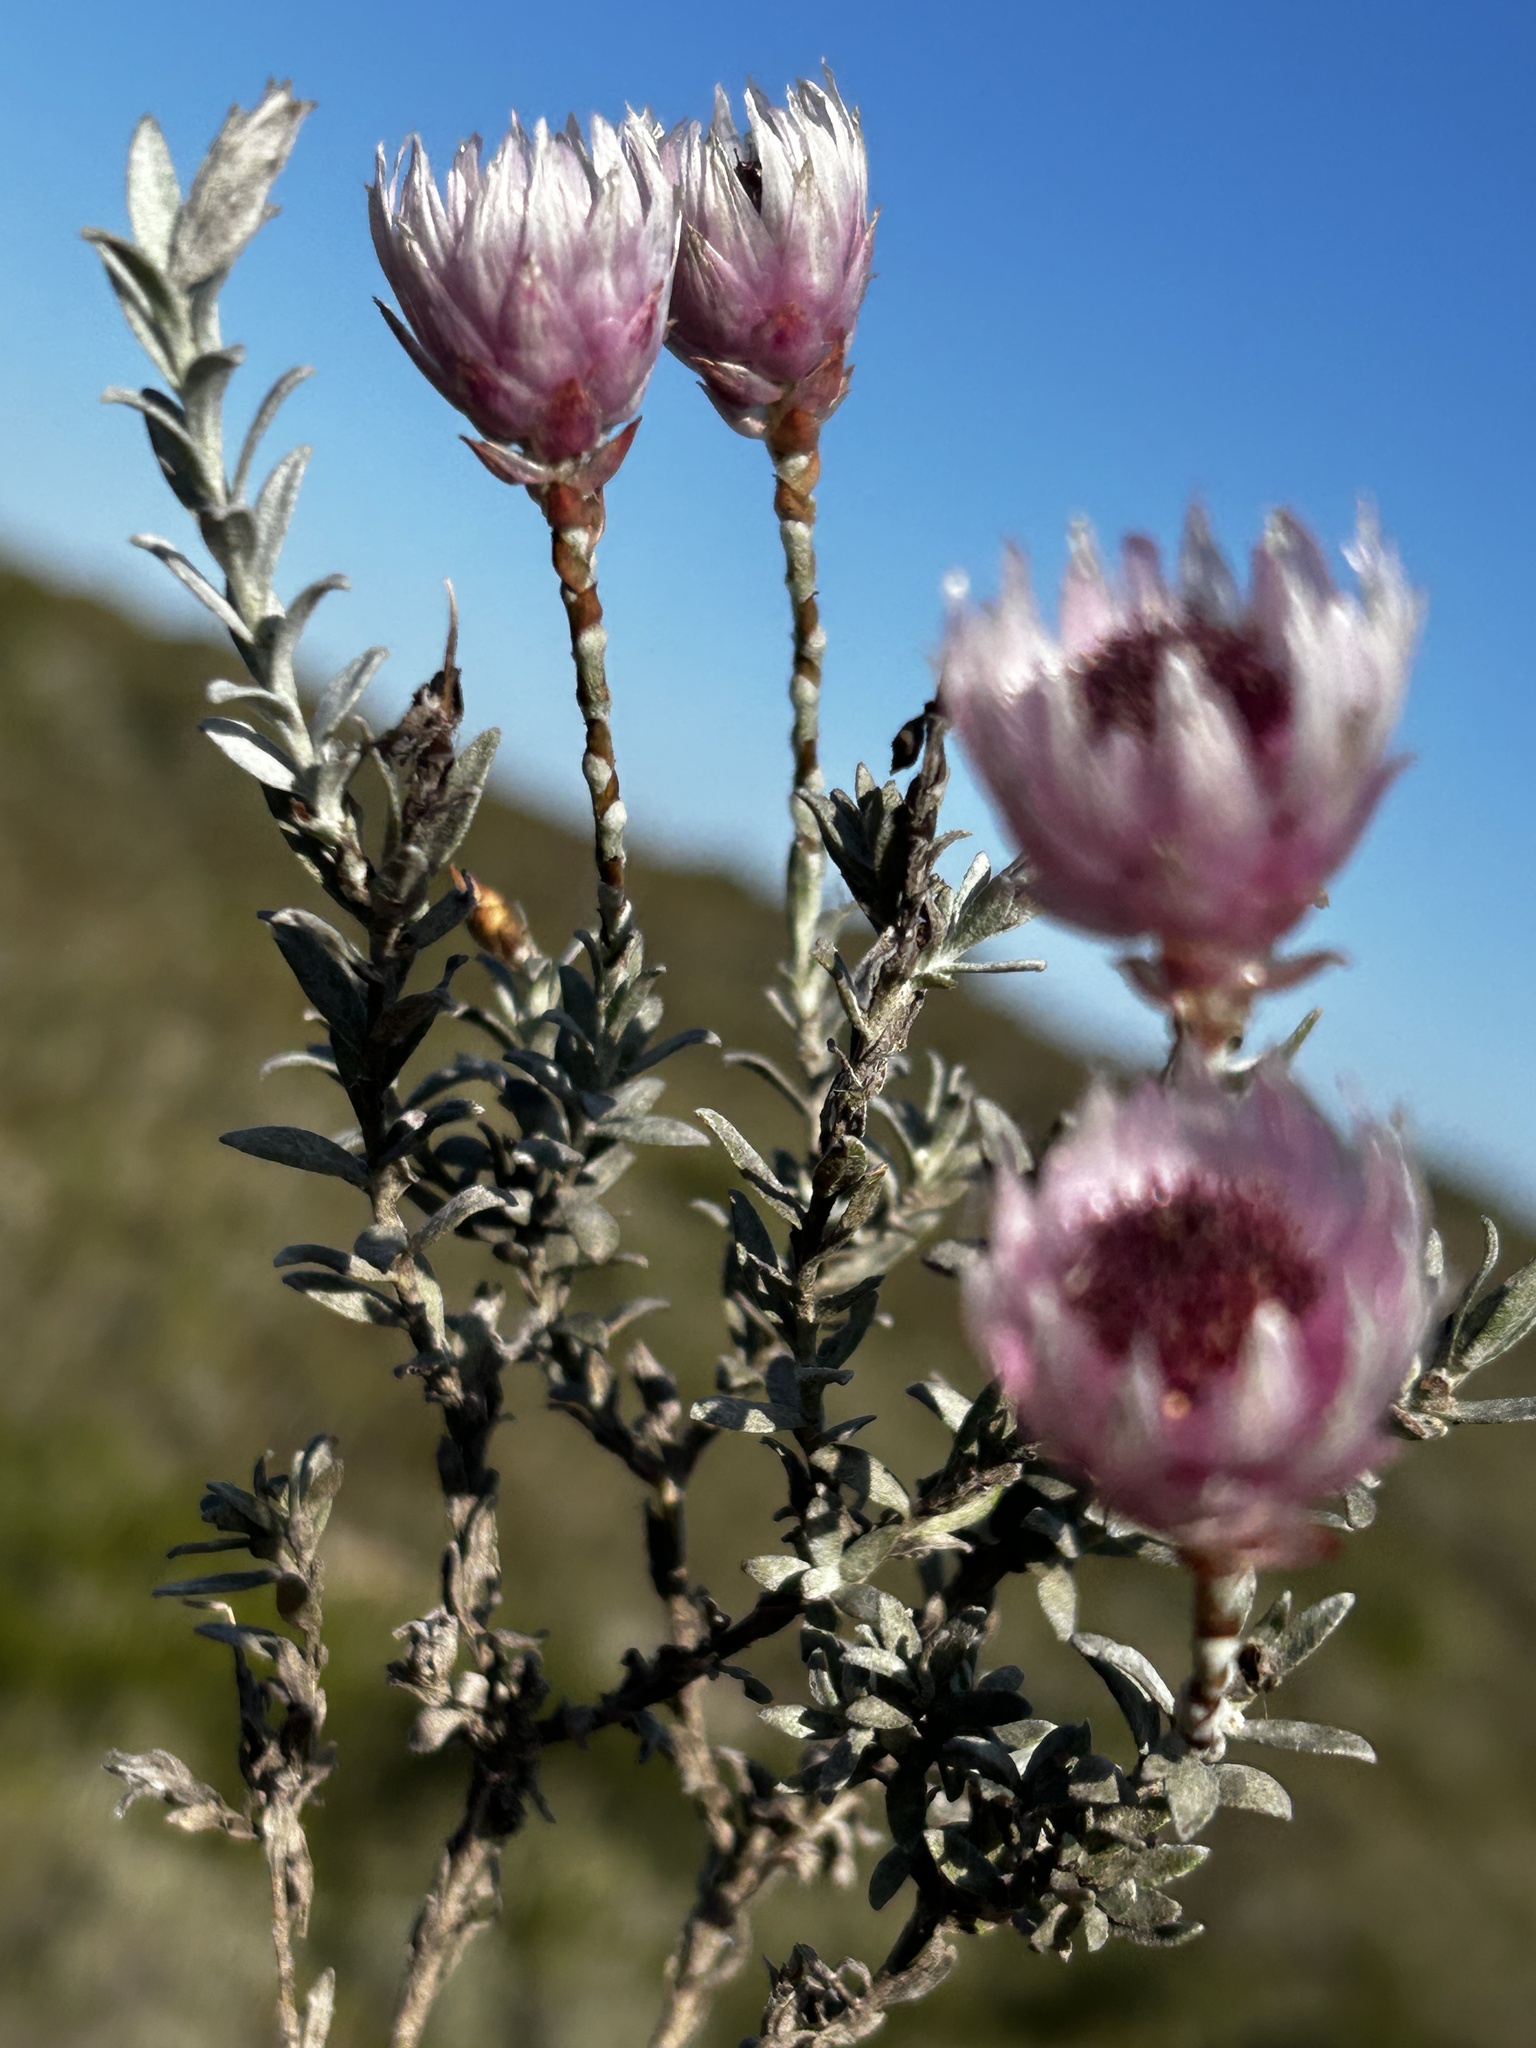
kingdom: Plantae
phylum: Tracheophyta
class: Magnoliopsida
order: Asterales
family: Asteraceae
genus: Syncarpha
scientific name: Syncarpha canescens
